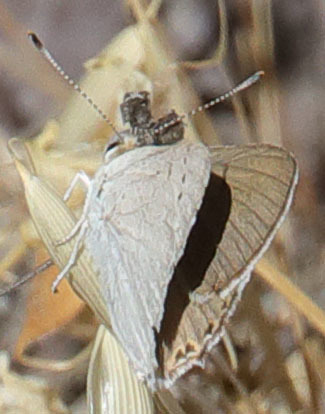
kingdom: Animalia
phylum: Arthropoda
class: Insecta
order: Lepidoptera
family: Lycaenidae
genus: Tharsalea
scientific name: Tharsalea xanthoides
